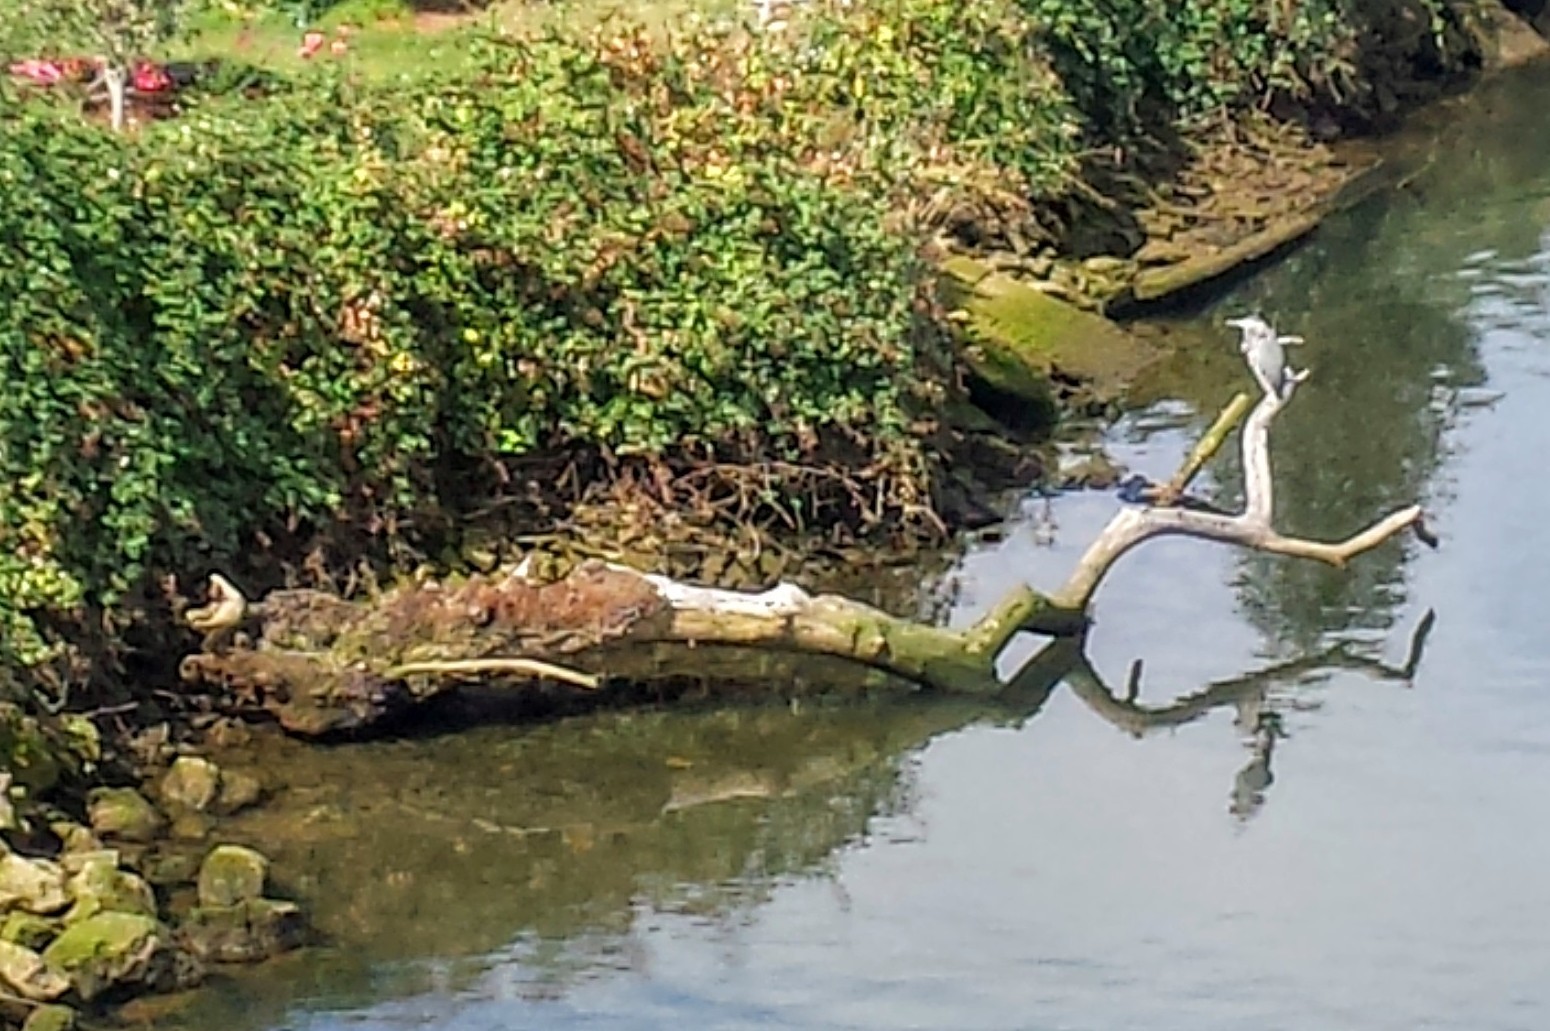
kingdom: Animalia
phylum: Chordata
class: Aves
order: Pelecaniformes
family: Ardeidae
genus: Ardea
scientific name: Ardea herodias
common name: Great blue heron
